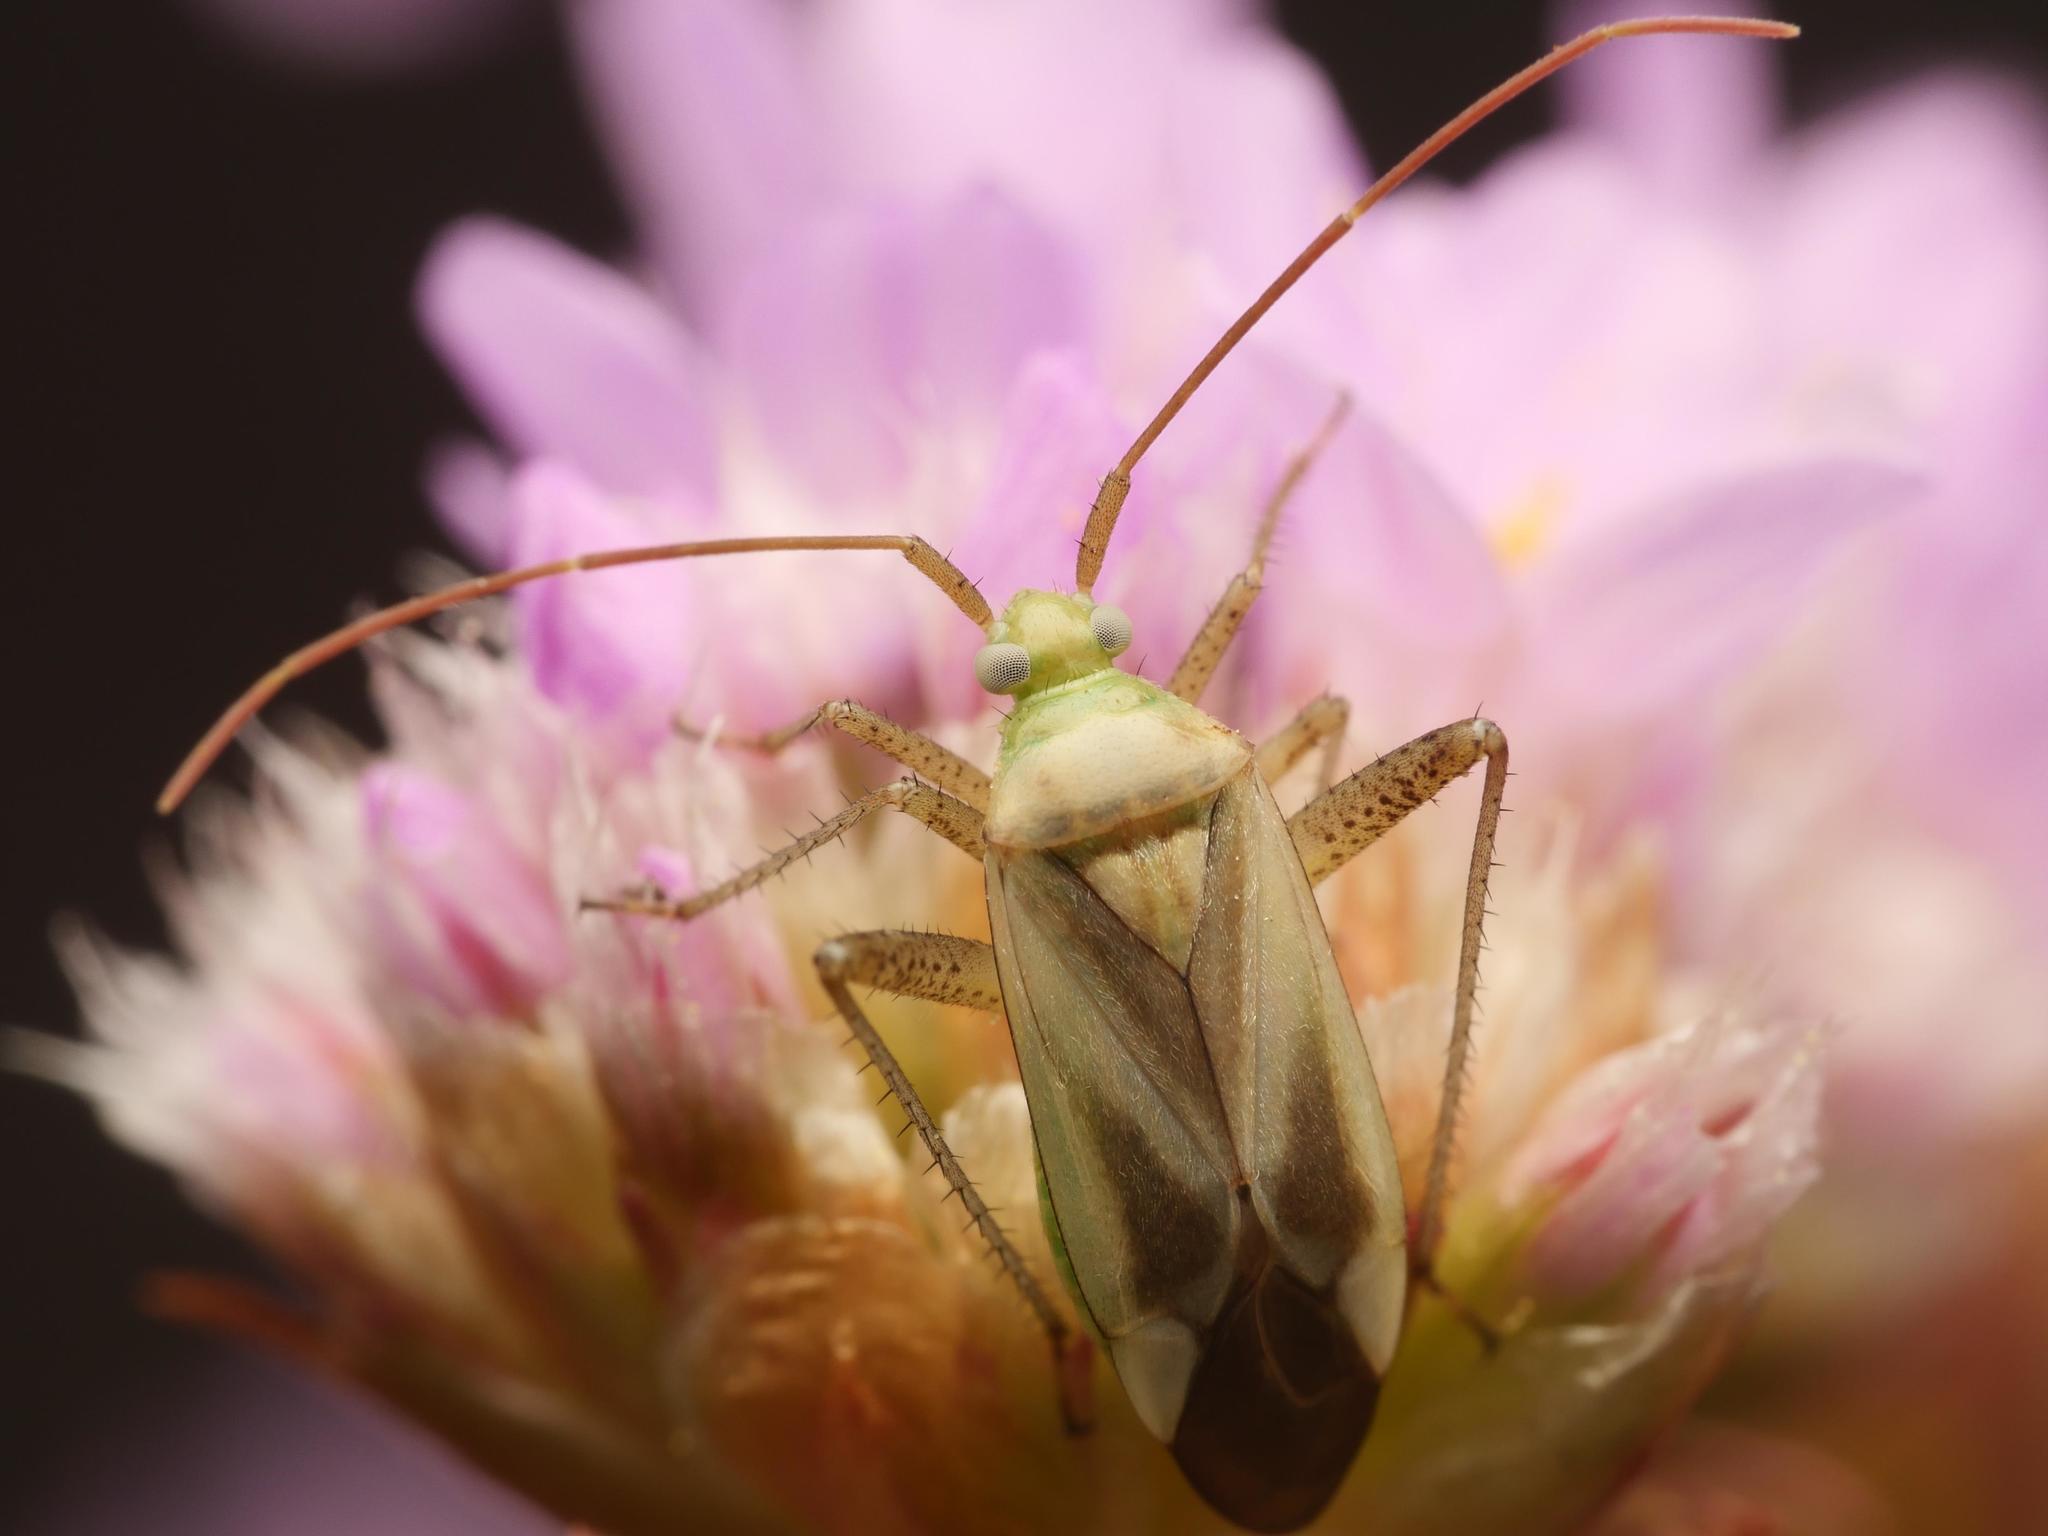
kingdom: Animalia
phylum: Arthropoda
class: Insecta
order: Hemiptera
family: Miridae
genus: Adelphocoris
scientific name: Adelphocoris lineolatus
